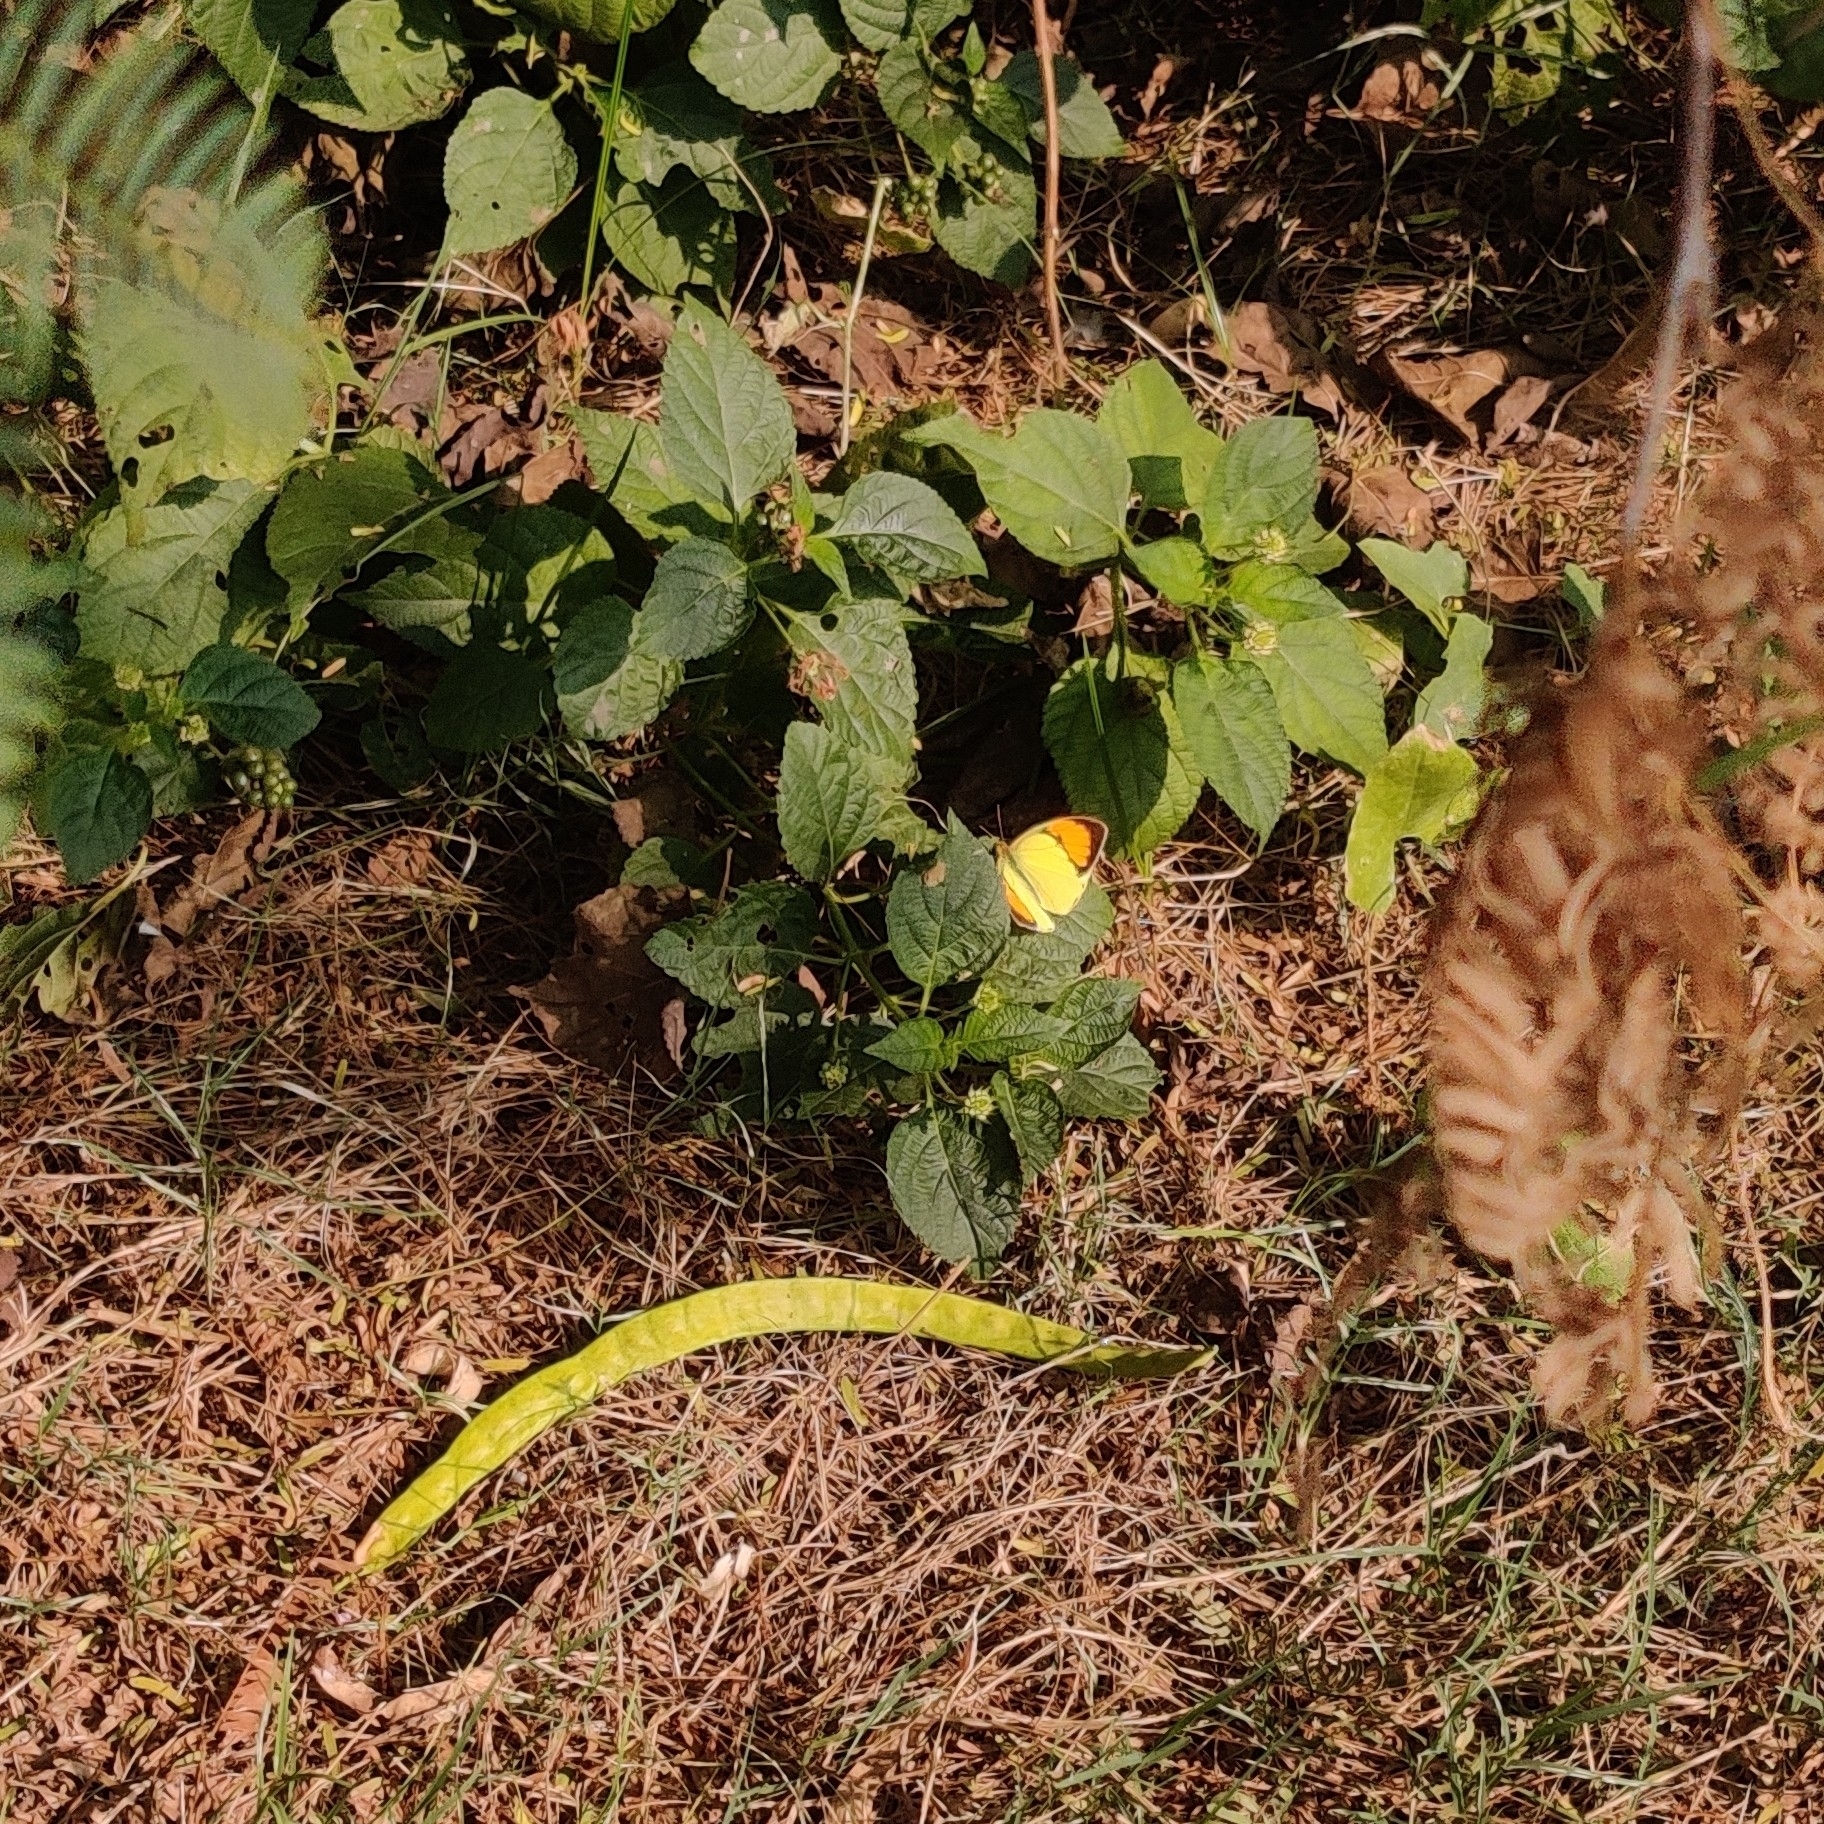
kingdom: Animalia
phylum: Arthropoda
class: Insecta
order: Lepidoptera
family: Pieridae
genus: Ixias
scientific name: Ixias pyrene
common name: Yellow orange tip
